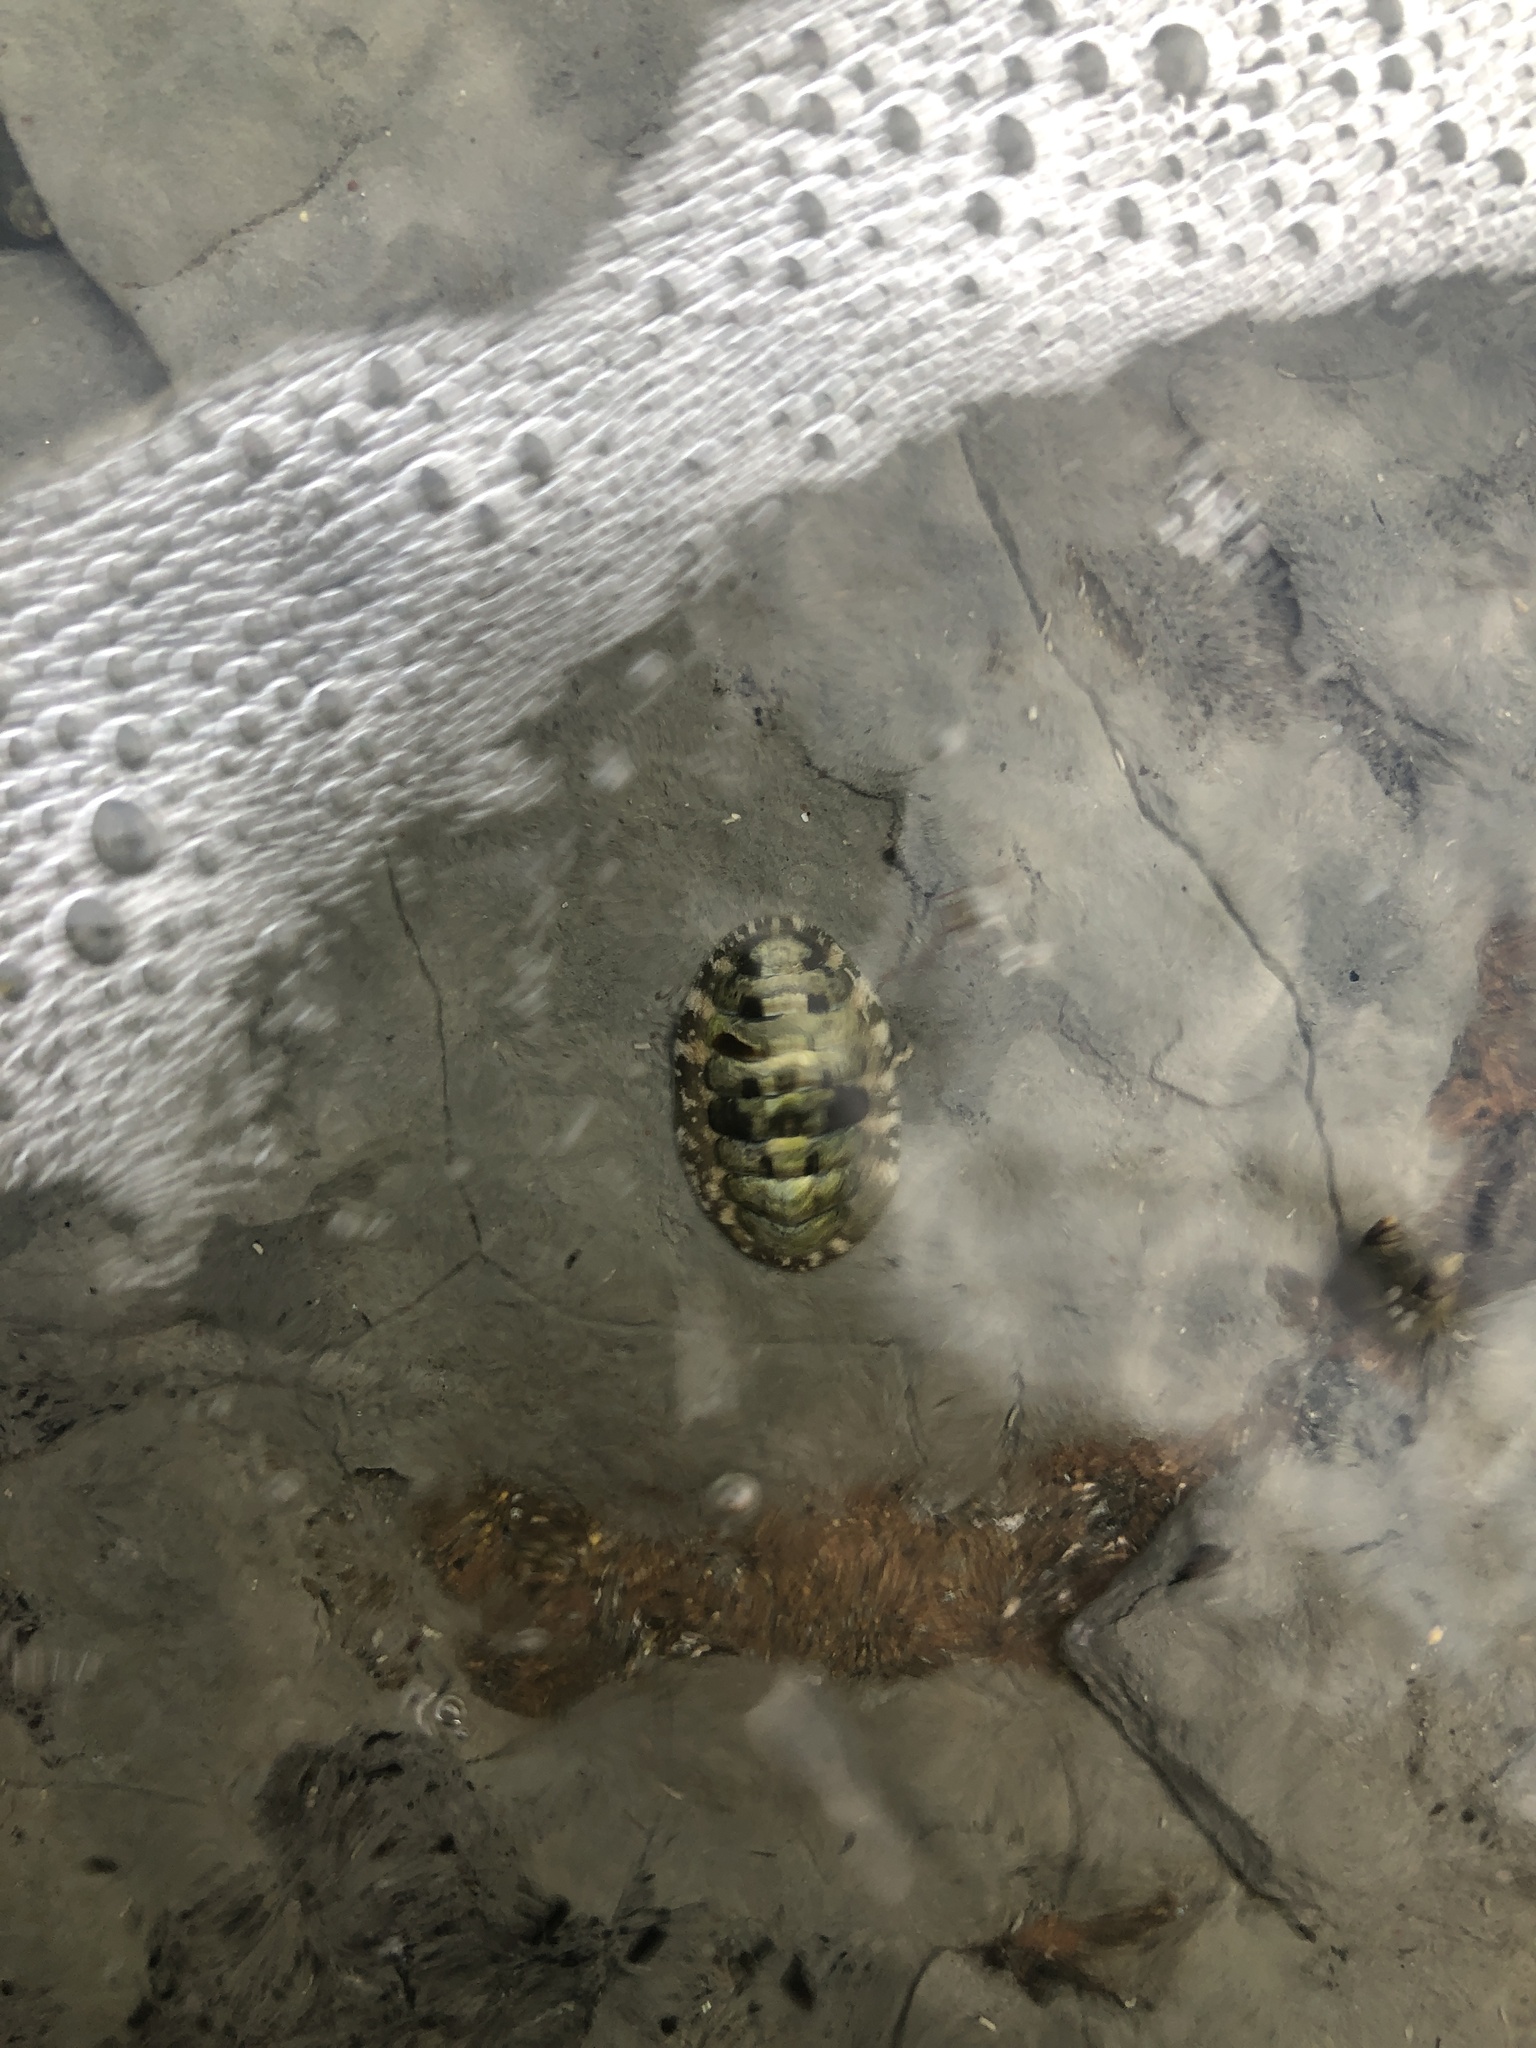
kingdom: Animalia
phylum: Mollusca
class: Polyplacophora
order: Chitonida
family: Tonicellidae
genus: Cyanoplax
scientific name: Cyanoplax hartwegii
